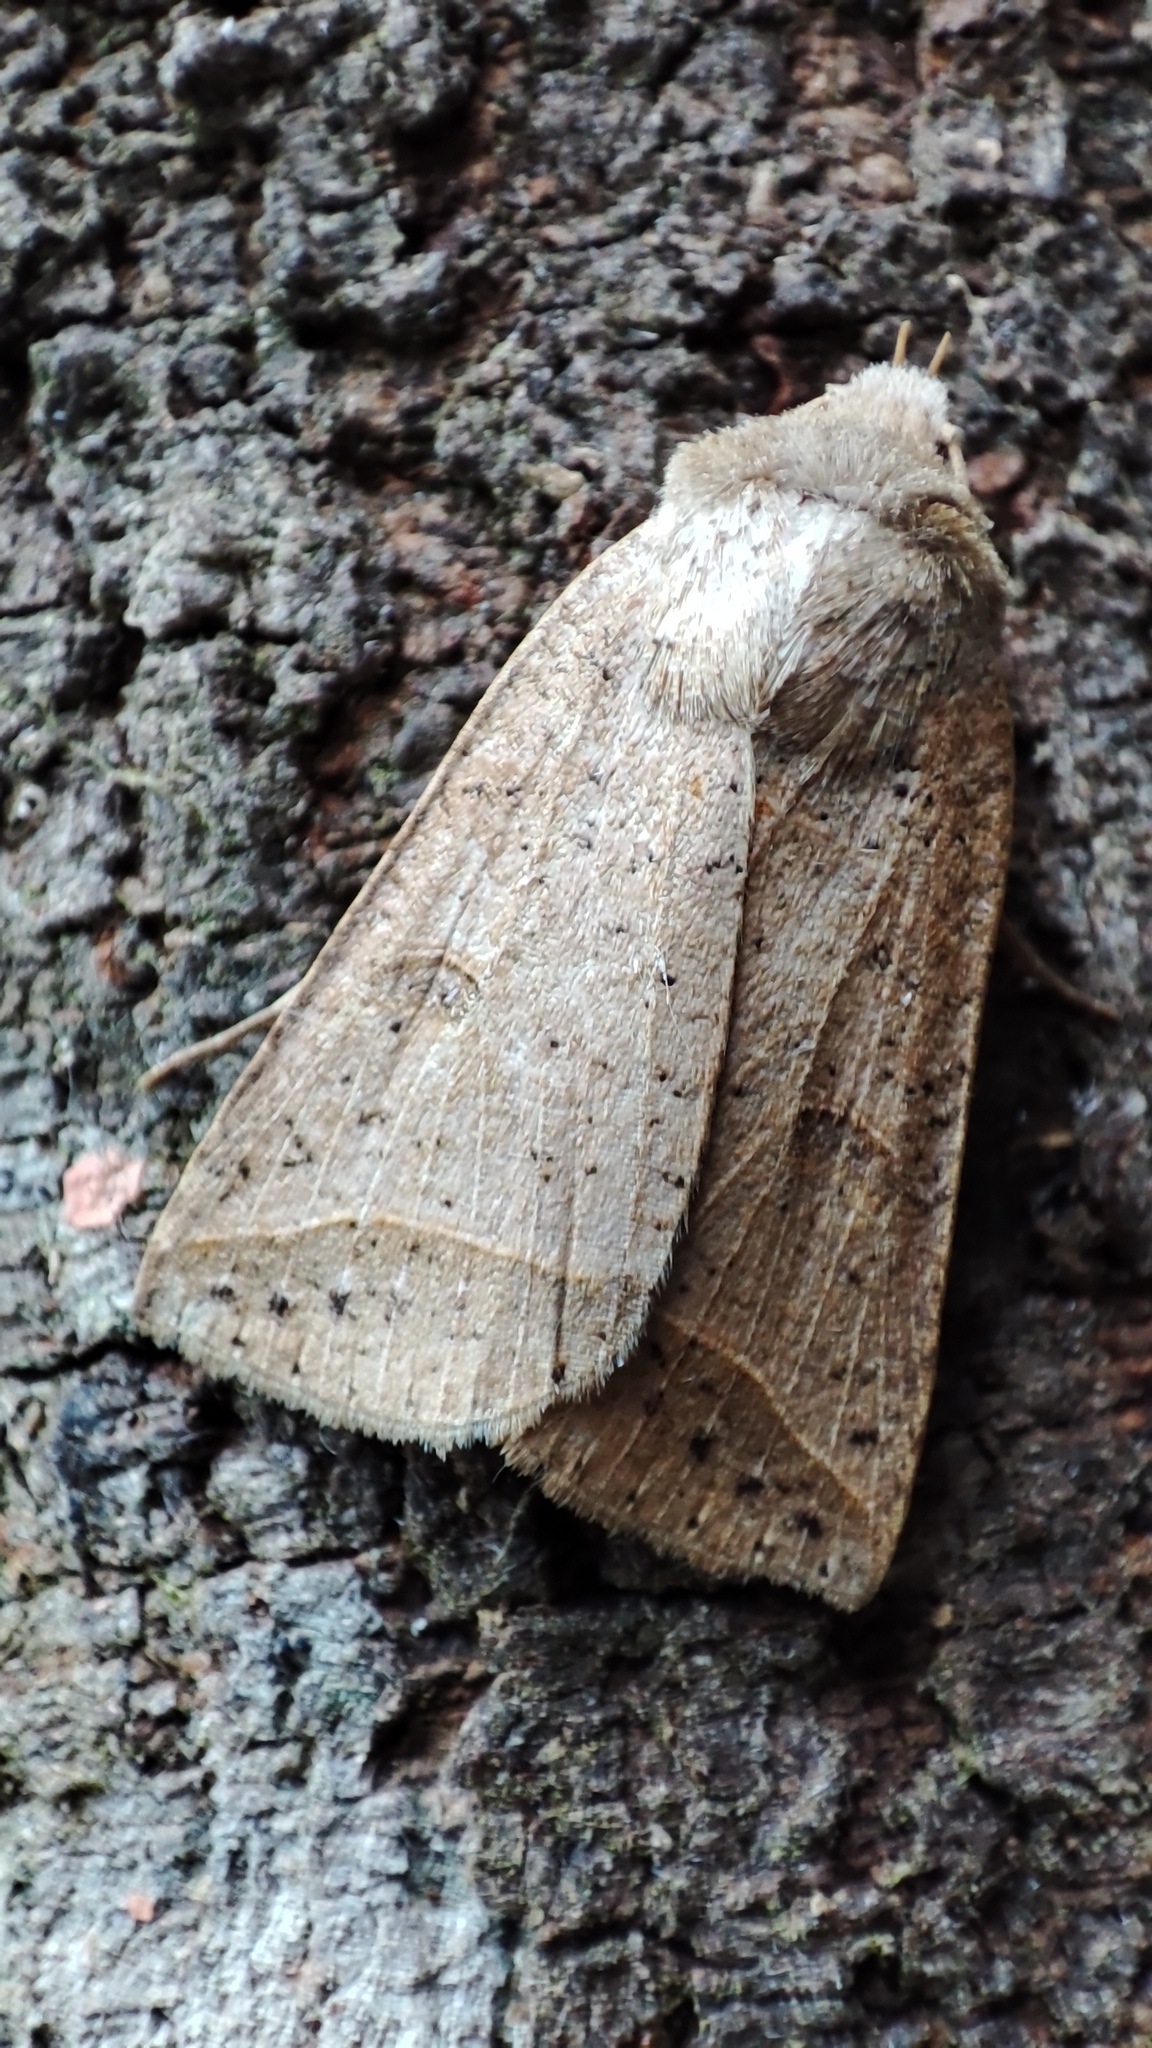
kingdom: Animalia
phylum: Arthropoda
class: Insecta
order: Lepidoptera
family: Erebidae
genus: Pantydia
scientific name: Pantydia
